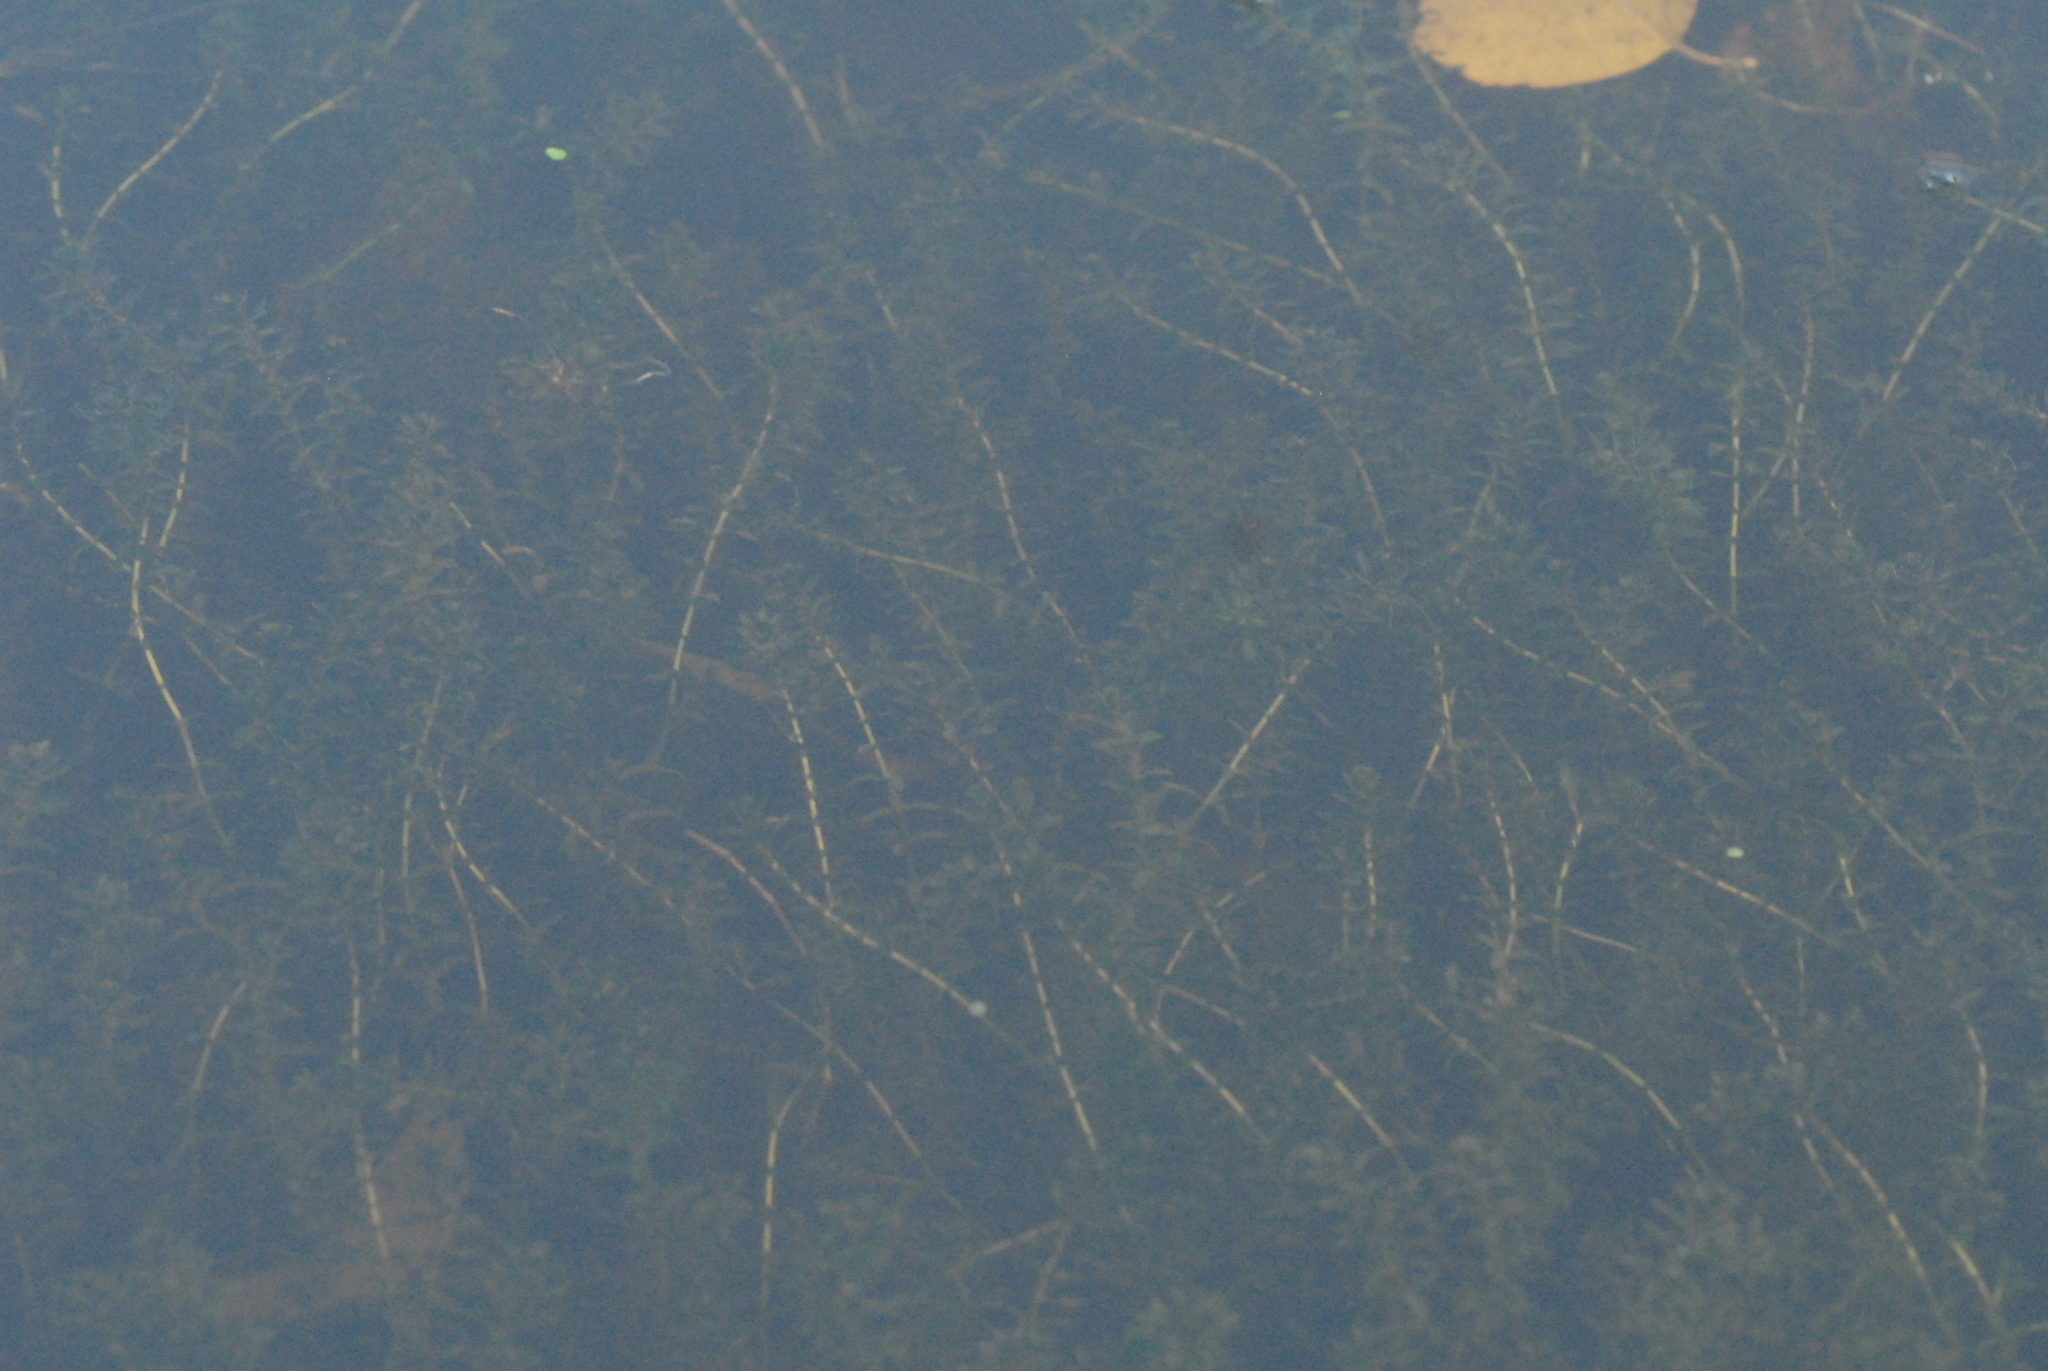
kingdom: Plantae
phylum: Tracheophyta
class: Liliopsida
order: Alismatales
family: Hydrocharitaceae
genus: Elodea
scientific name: Elodea canadensis
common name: Canadian waterweed
